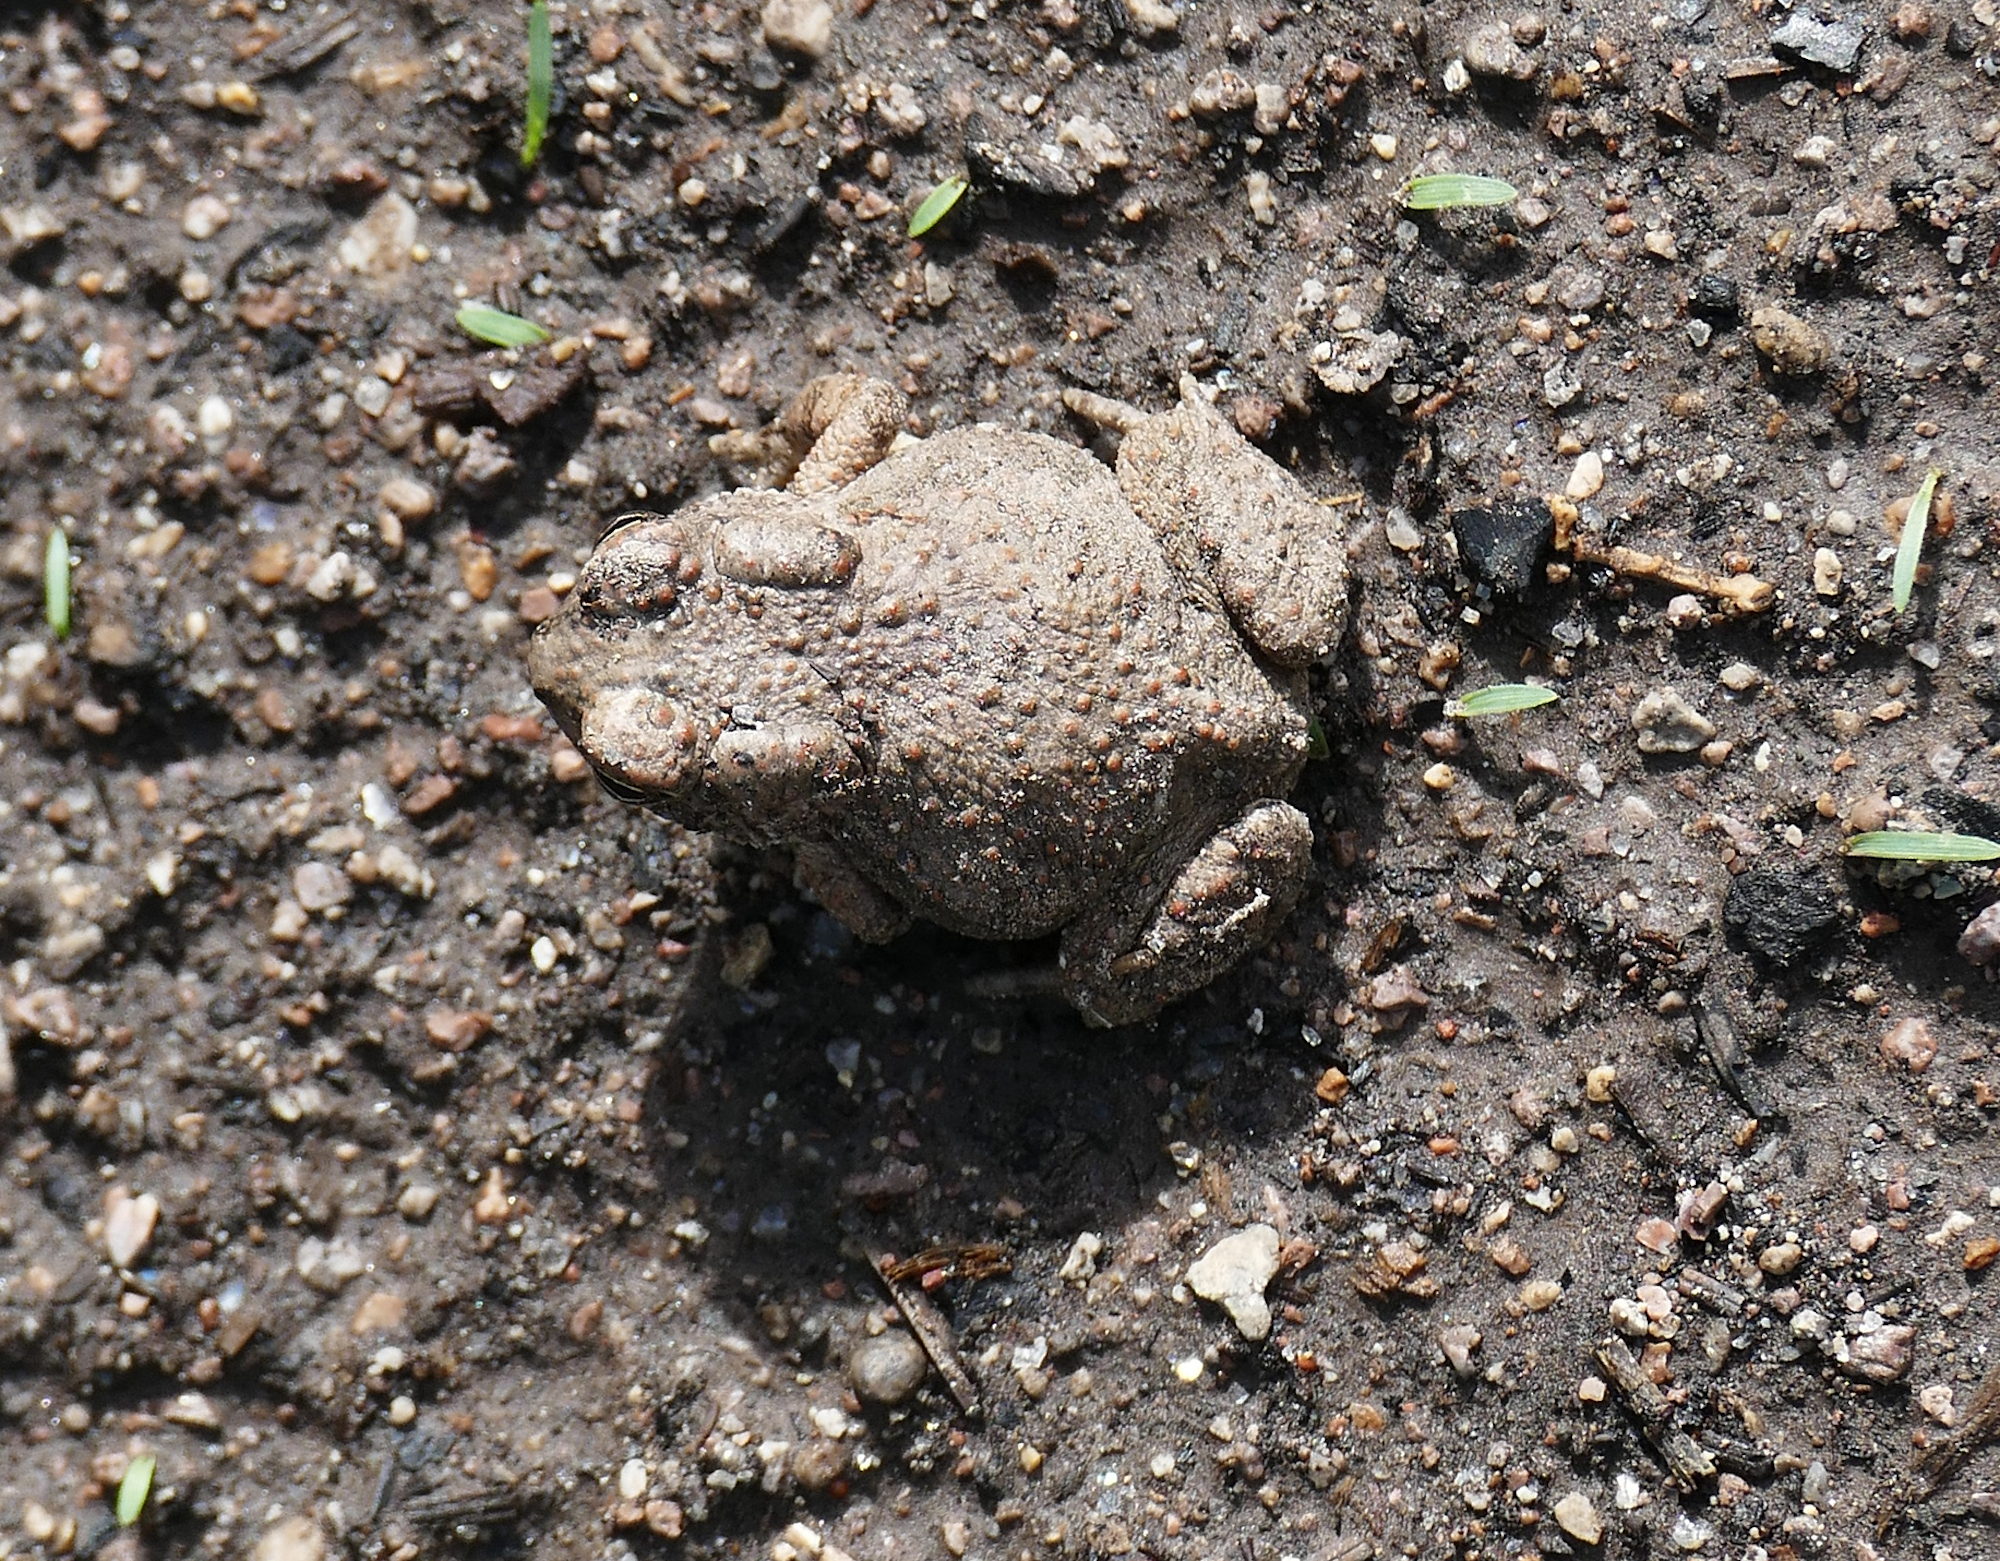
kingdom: Animalia
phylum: Chordata
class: Amphibia
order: Anura
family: Bufonidae
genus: Anaxyrus
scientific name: Anaxyrus microscaphus
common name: Arizona toad
